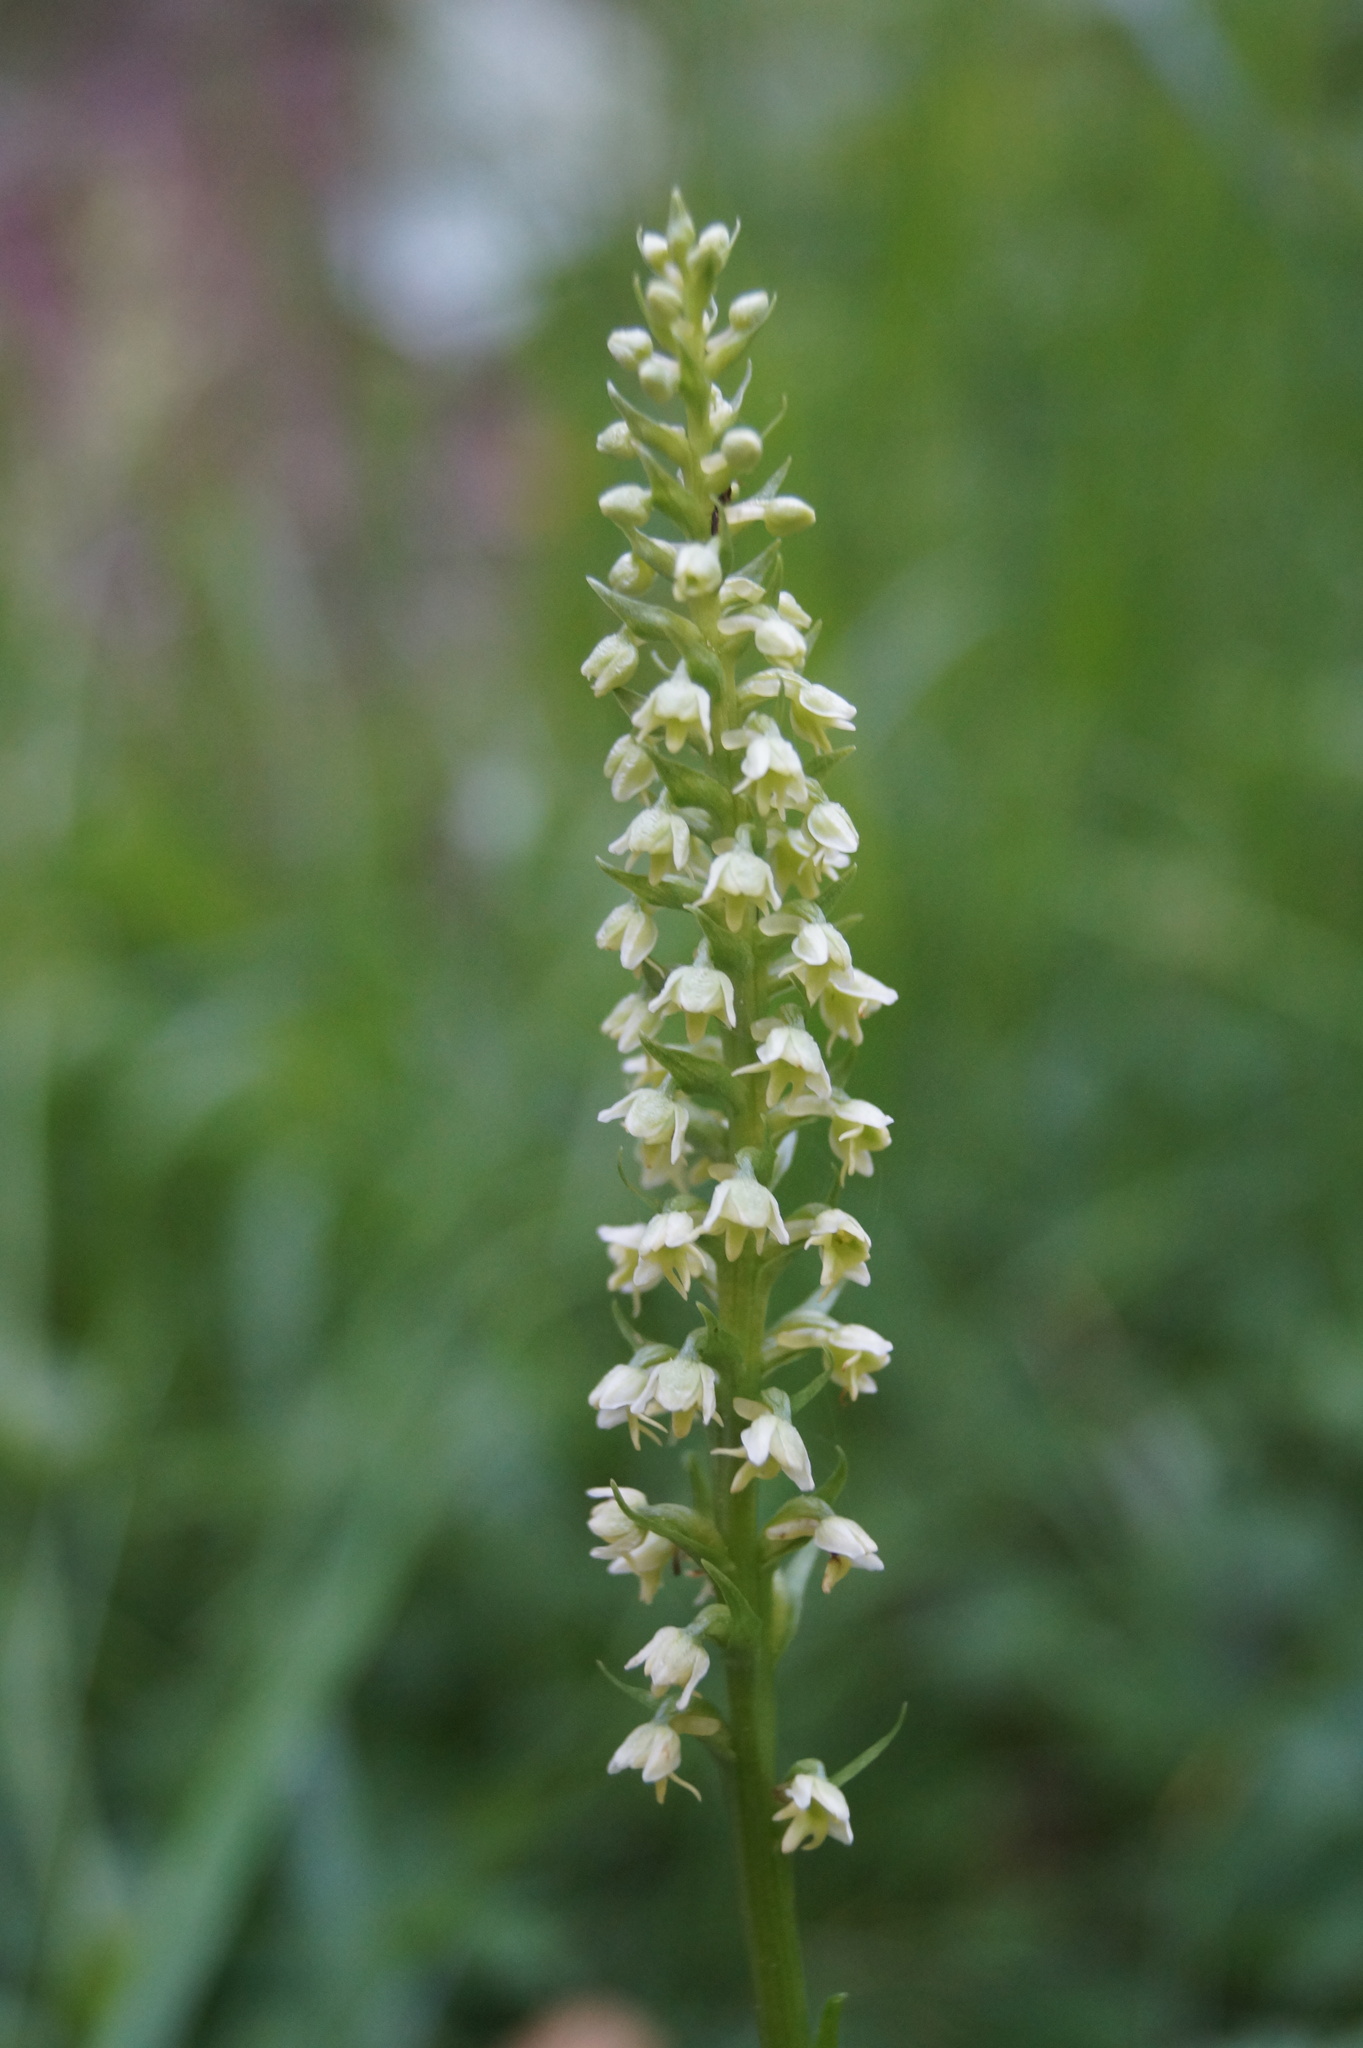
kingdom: Plantae
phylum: Tracheophyta
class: Liliopsida
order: Asparagales
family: Orchidaceae
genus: Pseudorchis
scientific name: Pseudorchis albida
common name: Small-white orchid
